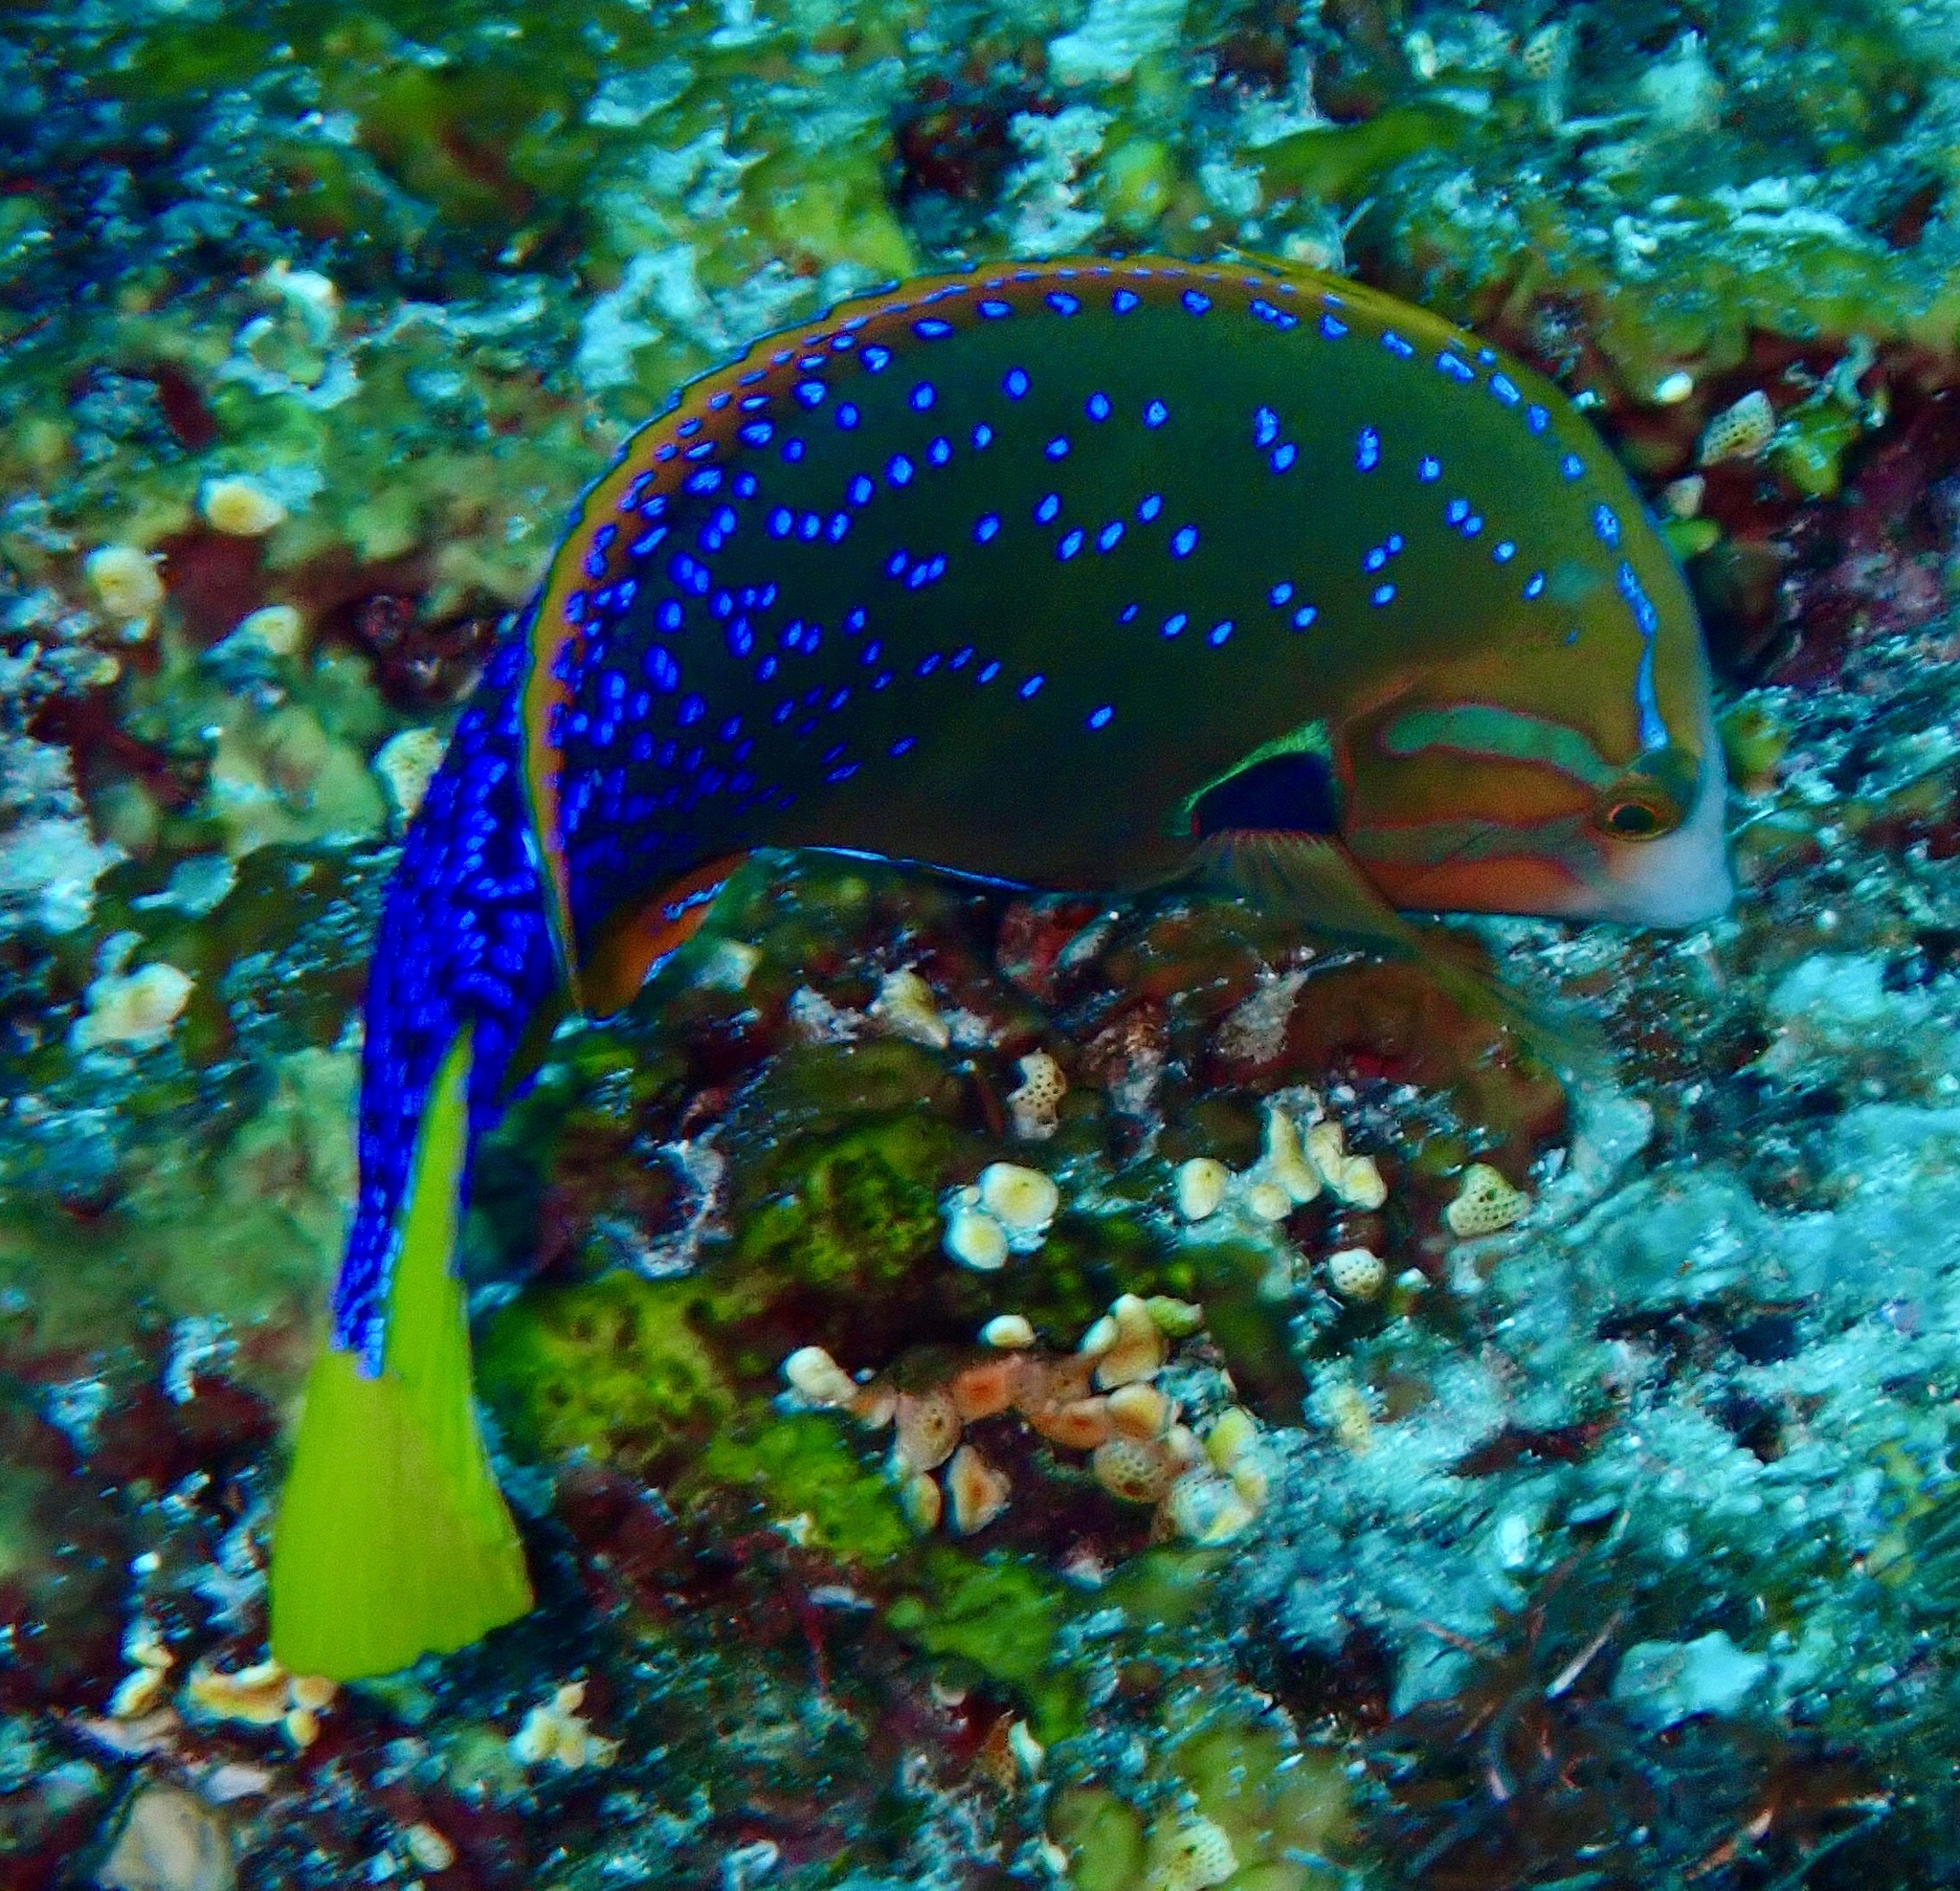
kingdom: Animalia
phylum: Chordata
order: Perciformes
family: Labridae
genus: Coris
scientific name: Coris gaimard
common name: Yellowtail coris
